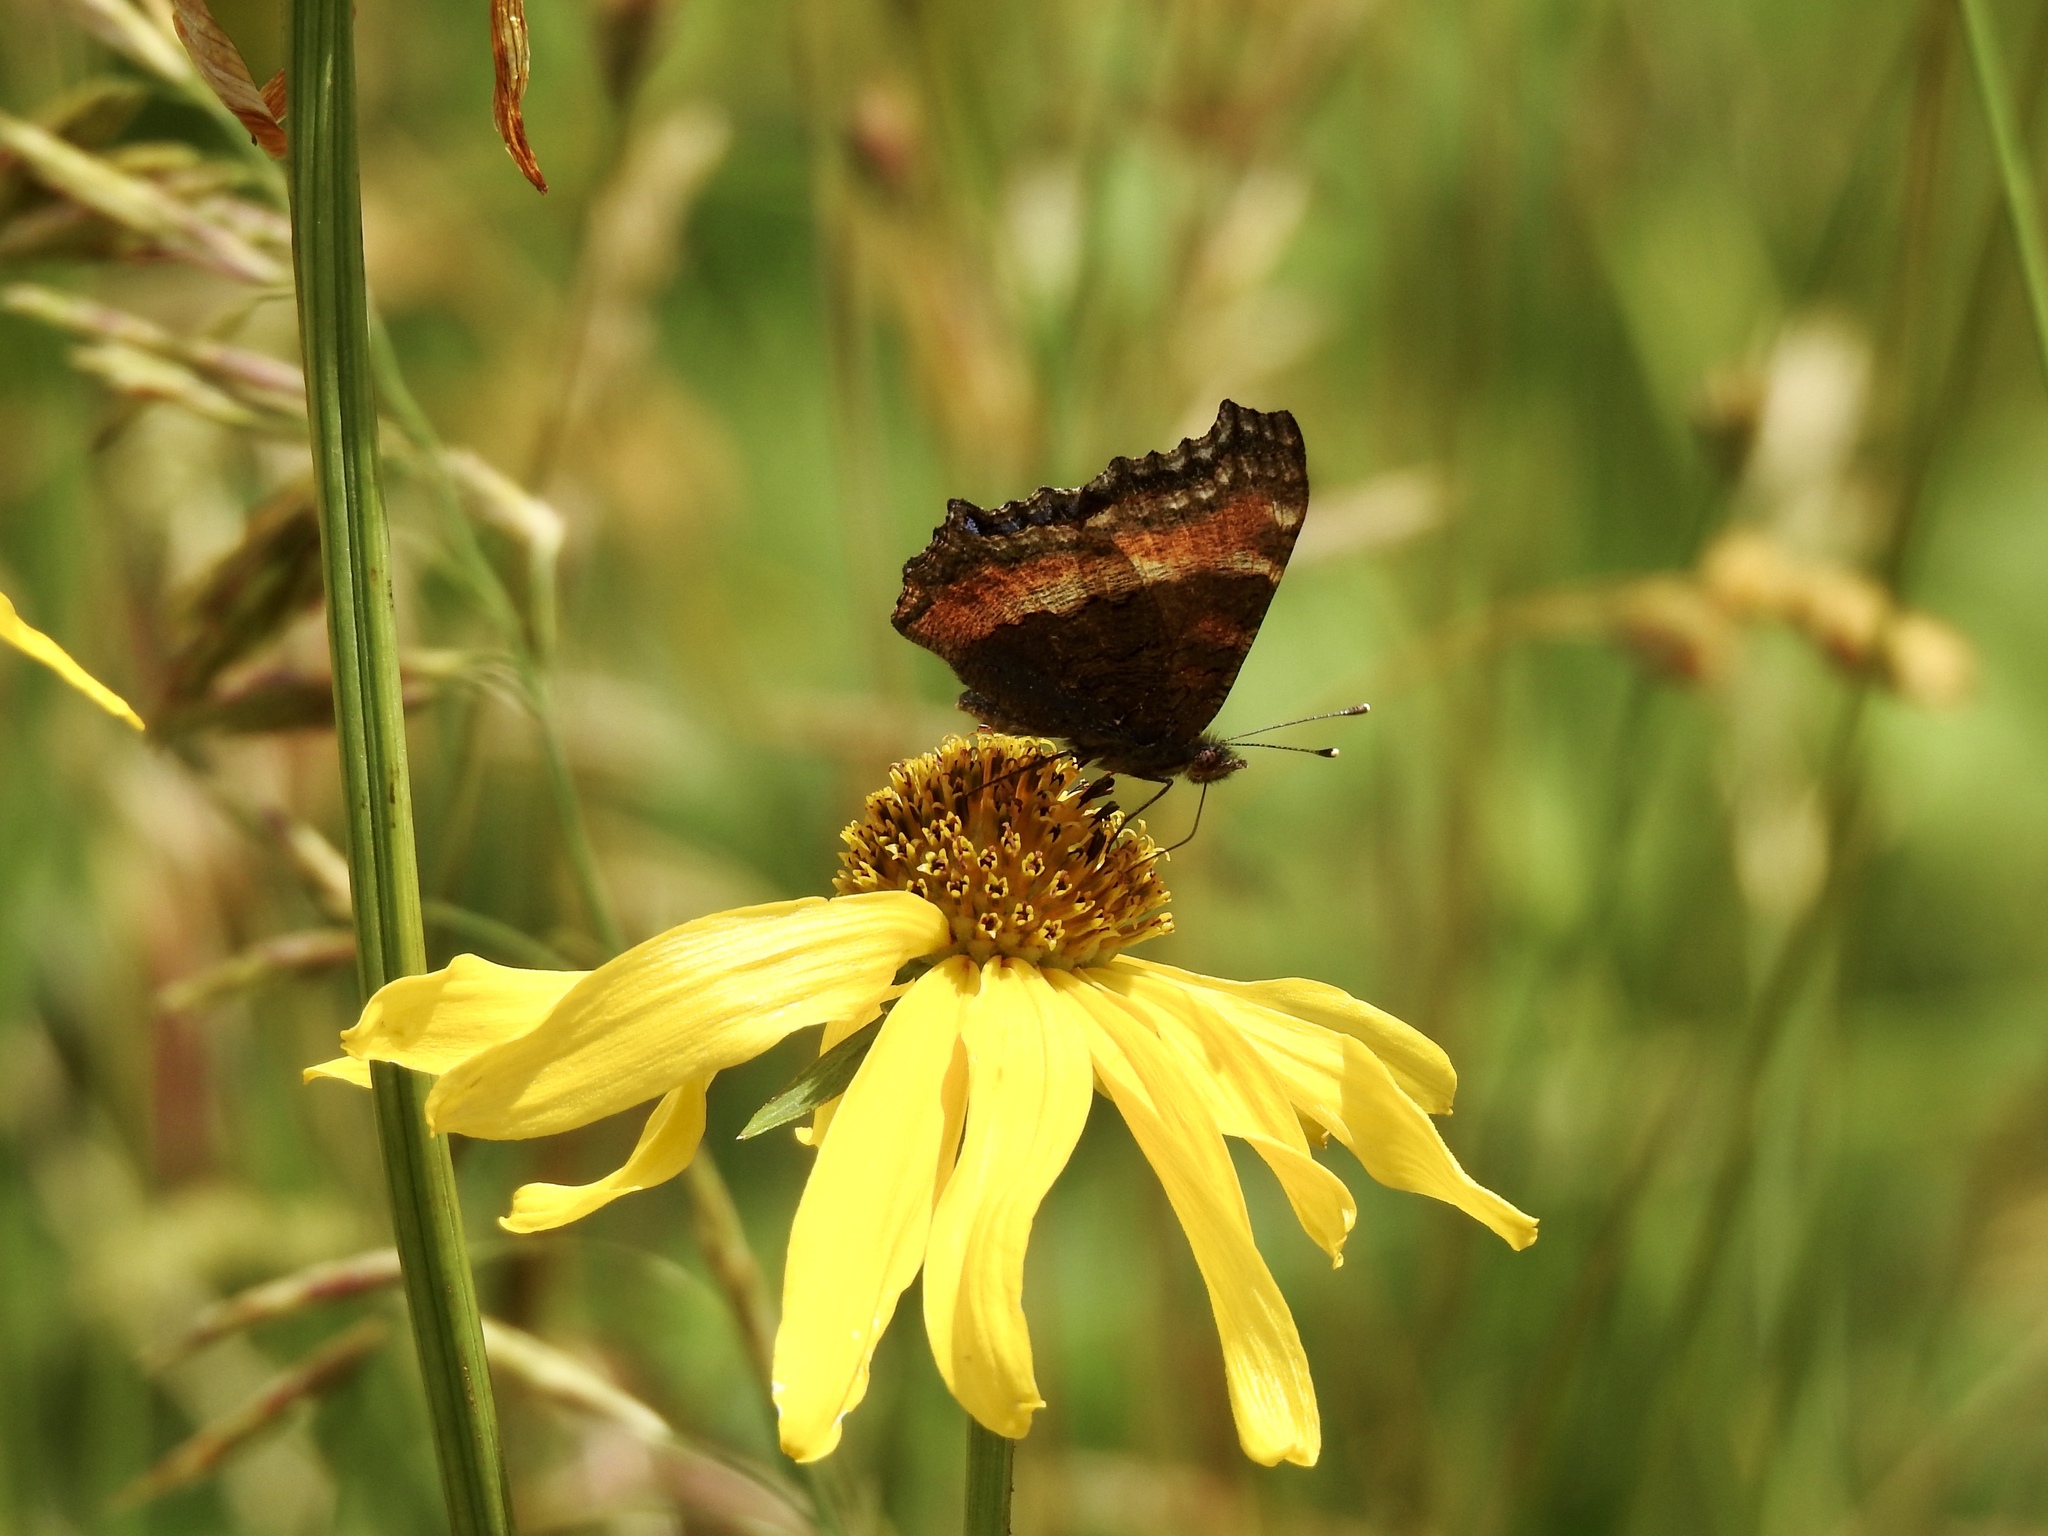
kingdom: Animalia
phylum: Arthropoda
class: Insecta
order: Lepidoptera
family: Nymphalidae
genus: Aglais
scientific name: Aglais milberti
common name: Milbert's tortoiseshell
